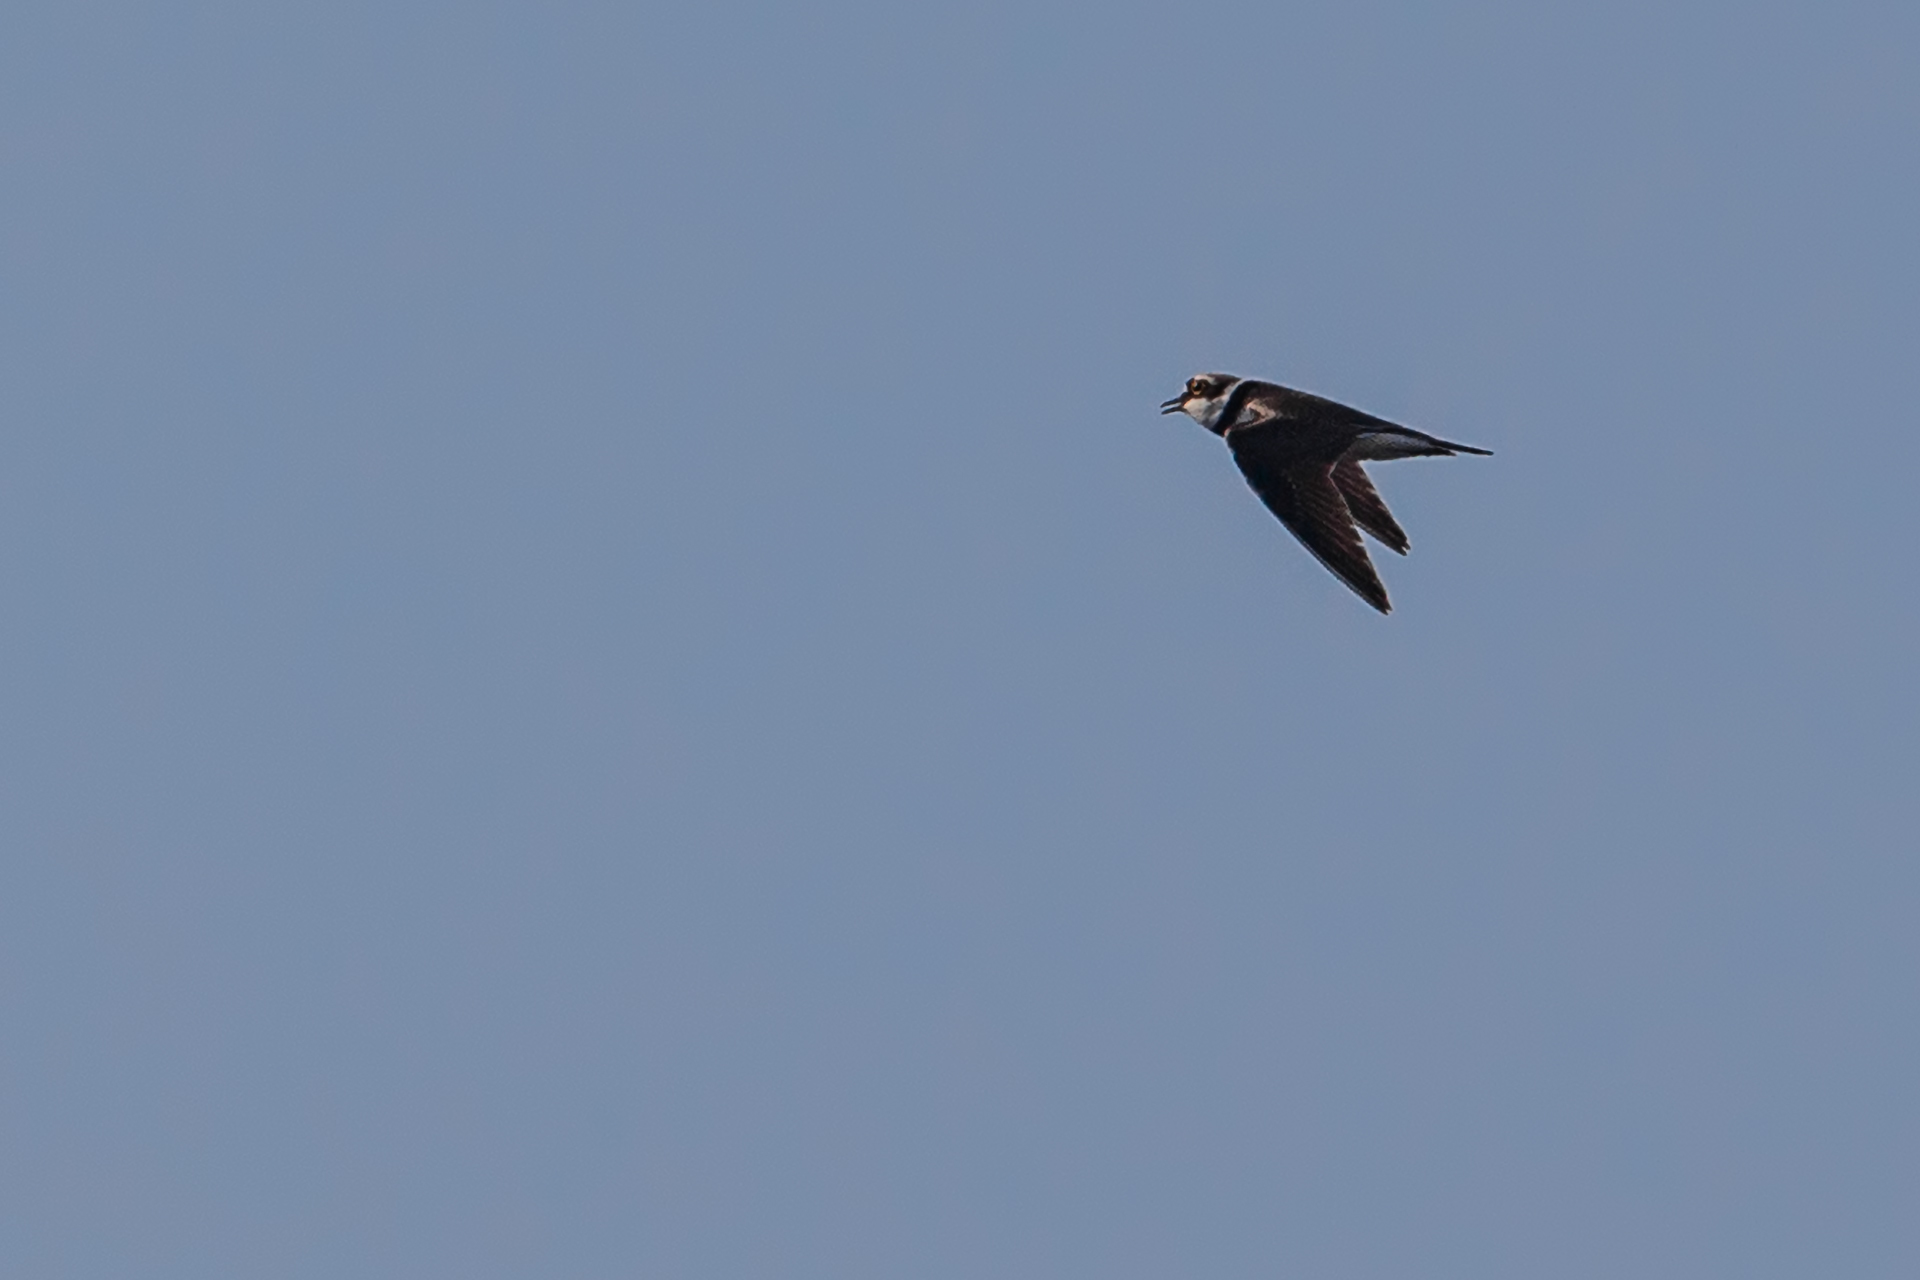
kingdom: Animalia
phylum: Chordata
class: Aves
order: Charadriiformes
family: Charadriidae
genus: Charadrius
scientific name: Charadrius dubius
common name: Little ringed plover
